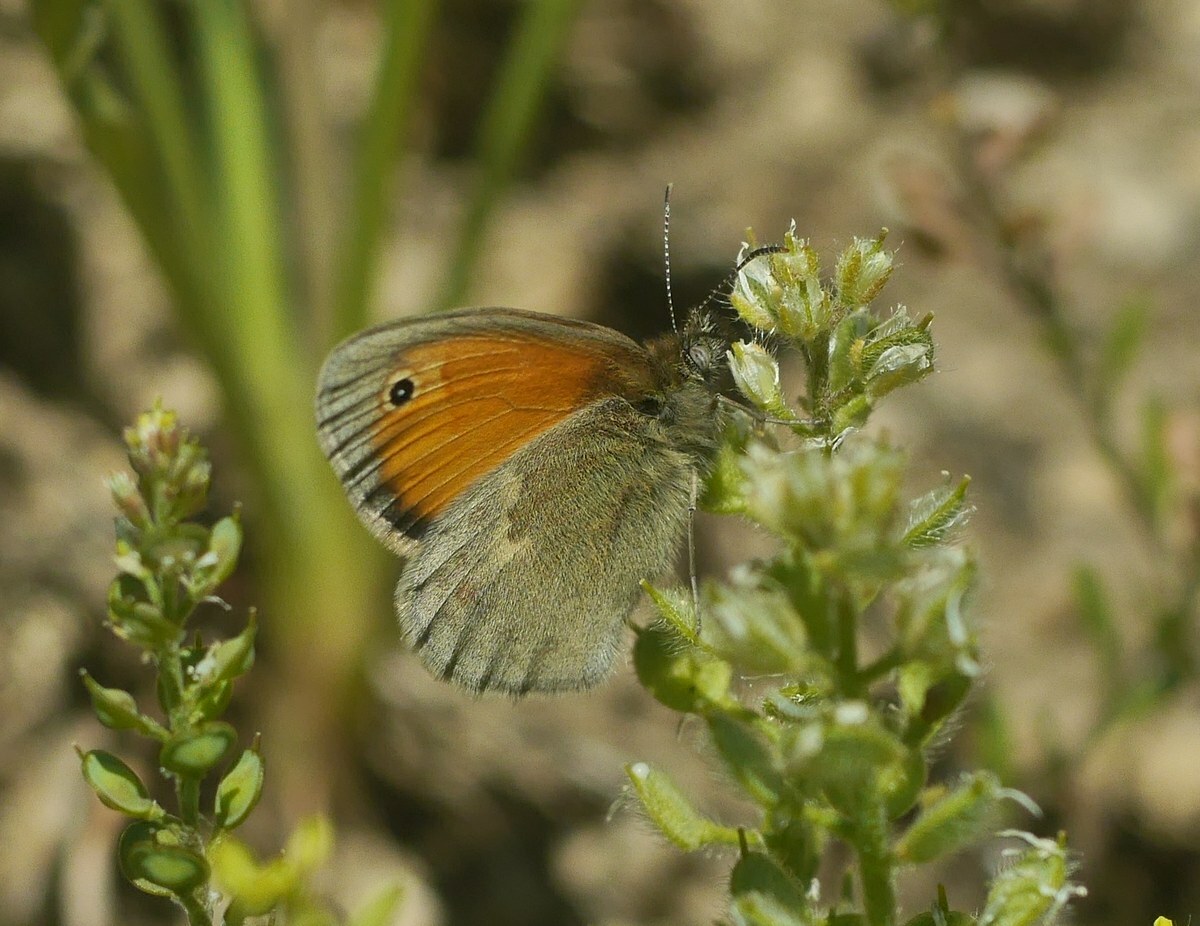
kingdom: Animalia
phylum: Arthropoda
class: Insecta
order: Lepidoptera
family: Nymphalidae
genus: Coenonympha
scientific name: Coenonympha pamphilus
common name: Small heath
